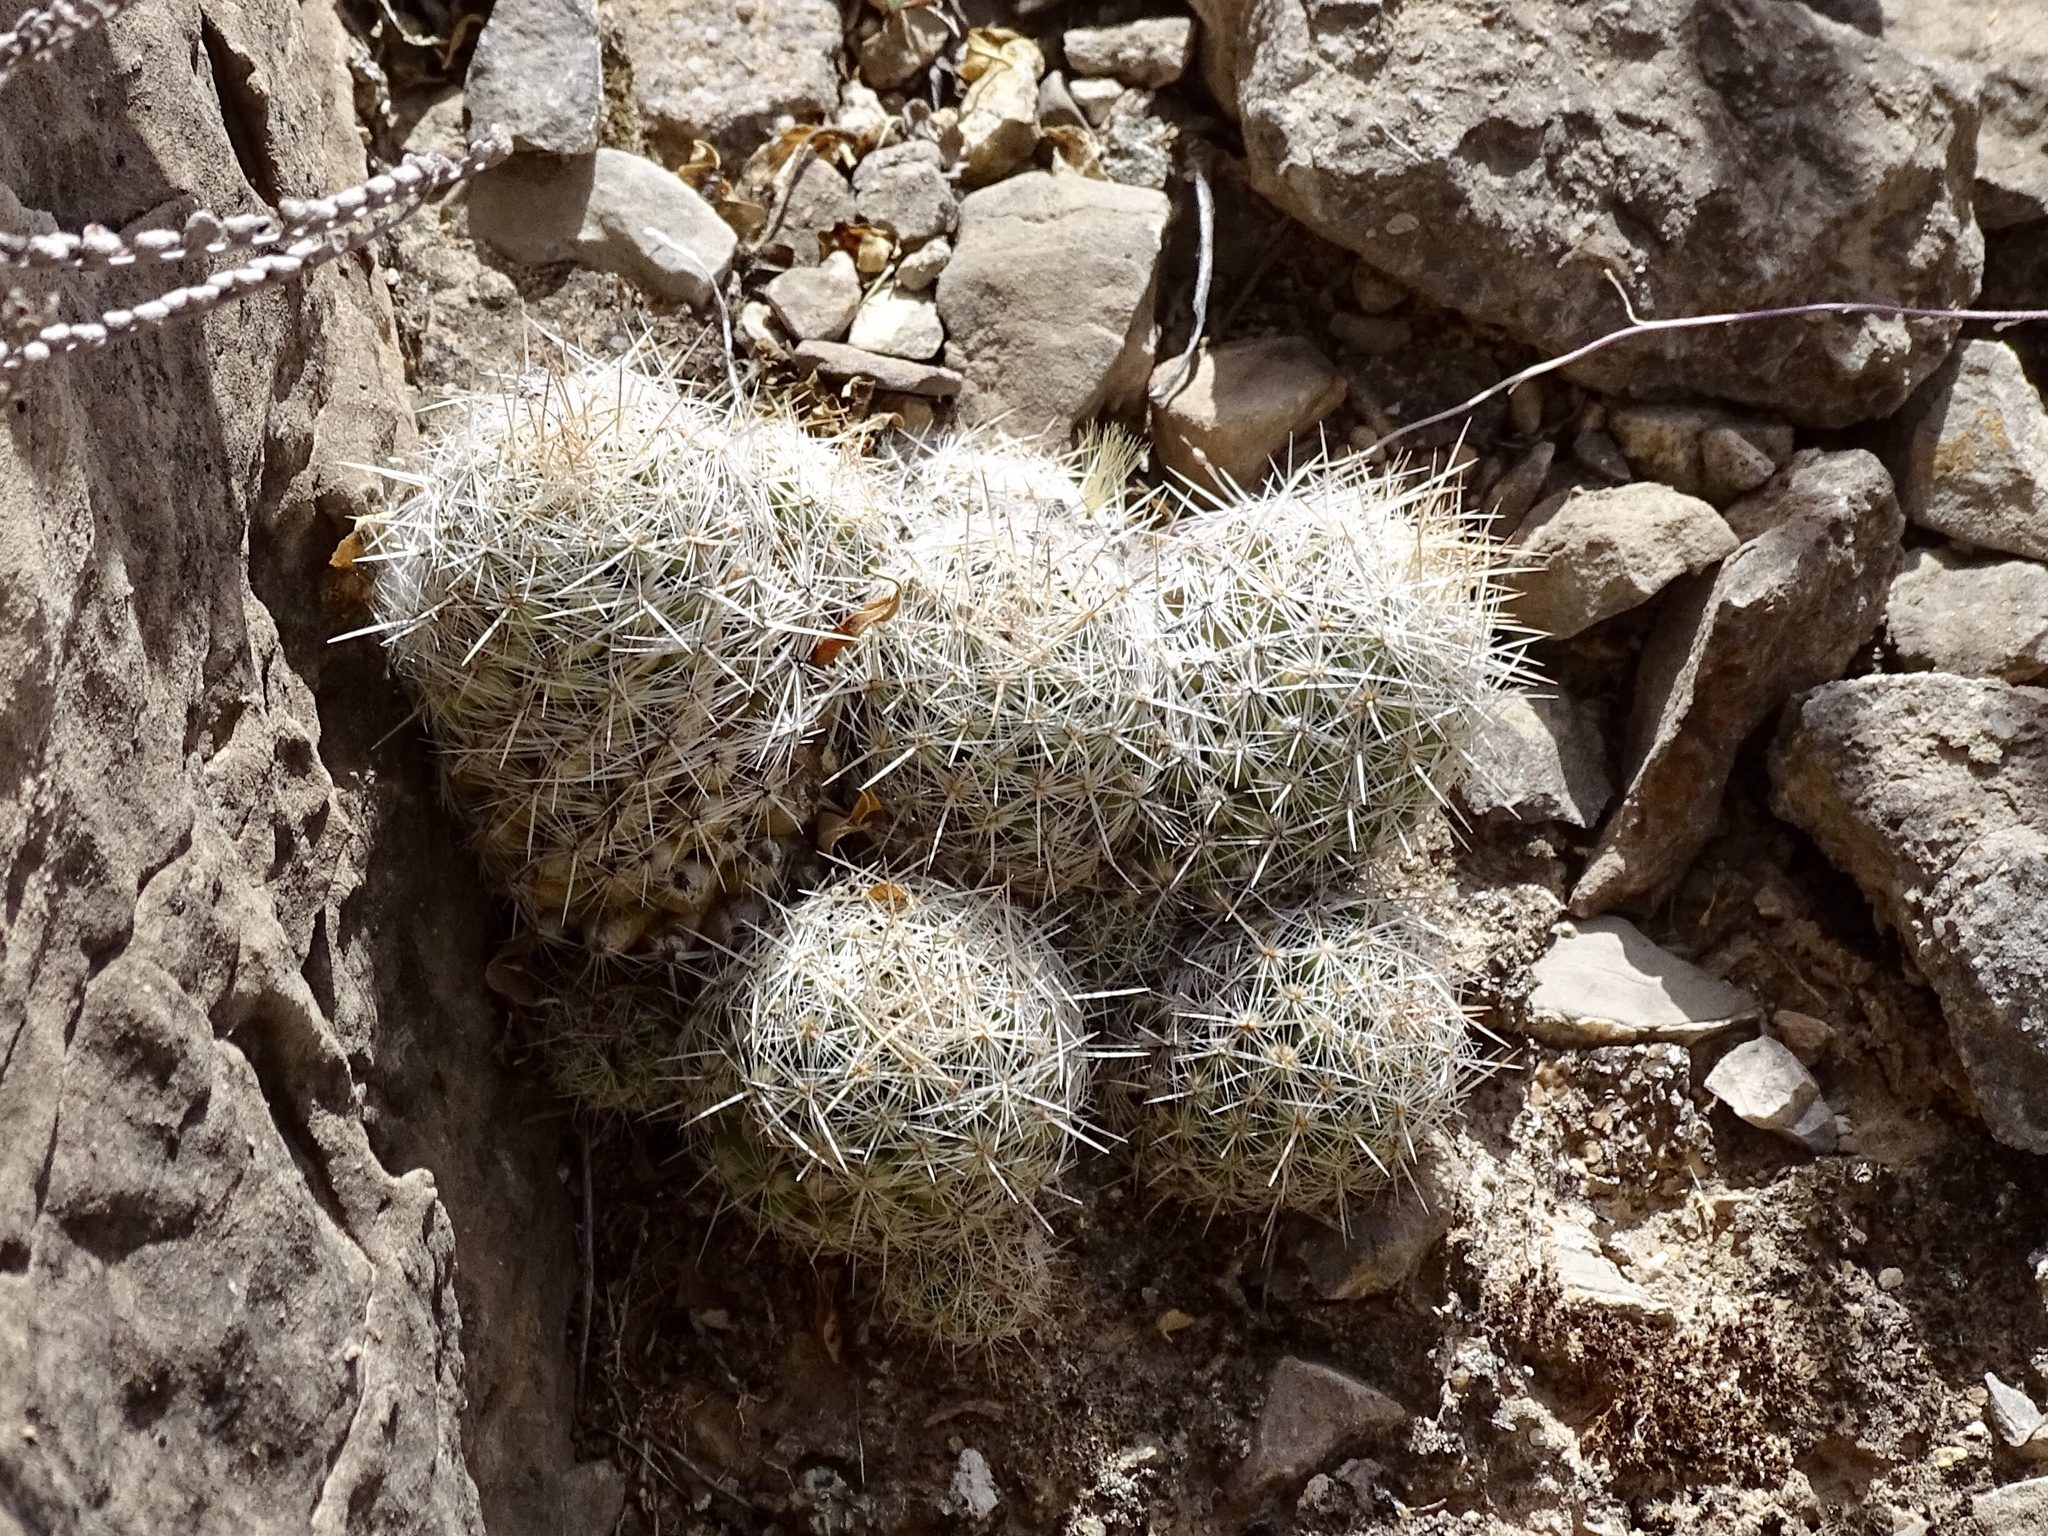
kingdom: Plantae
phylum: Tracheophyta
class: Magnoliopsida
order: Caryophyllales
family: Cactaceae
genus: Pelecyphora
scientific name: Pelecyphora tuberculosa
